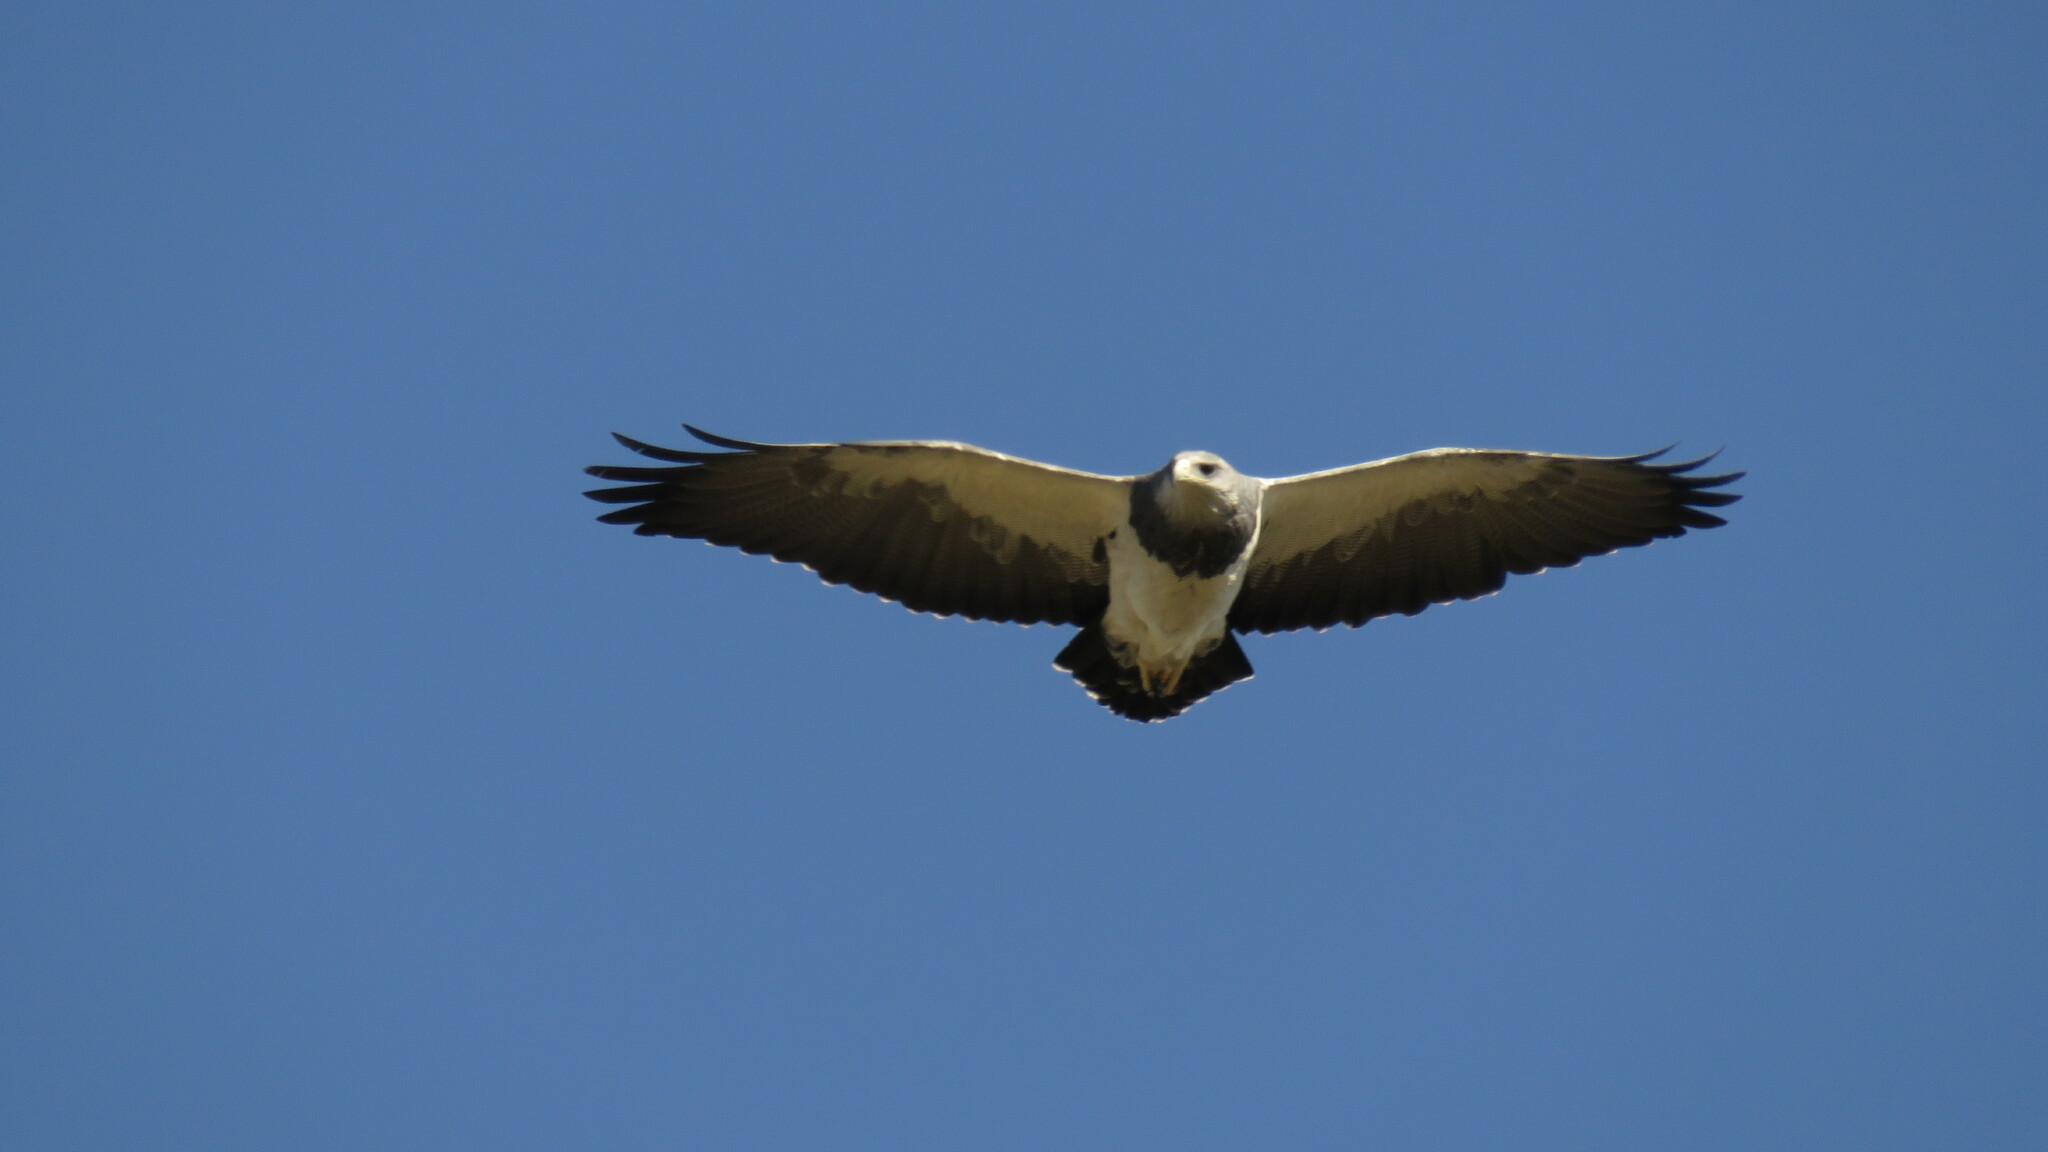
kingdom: Animalia
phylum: Chordata
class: Aves
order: Accipitriformes
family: Accipitridae
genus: Geranoaetus
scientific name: Geranoaetus melanoleucus
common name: Black-chested buzzard-eagle
